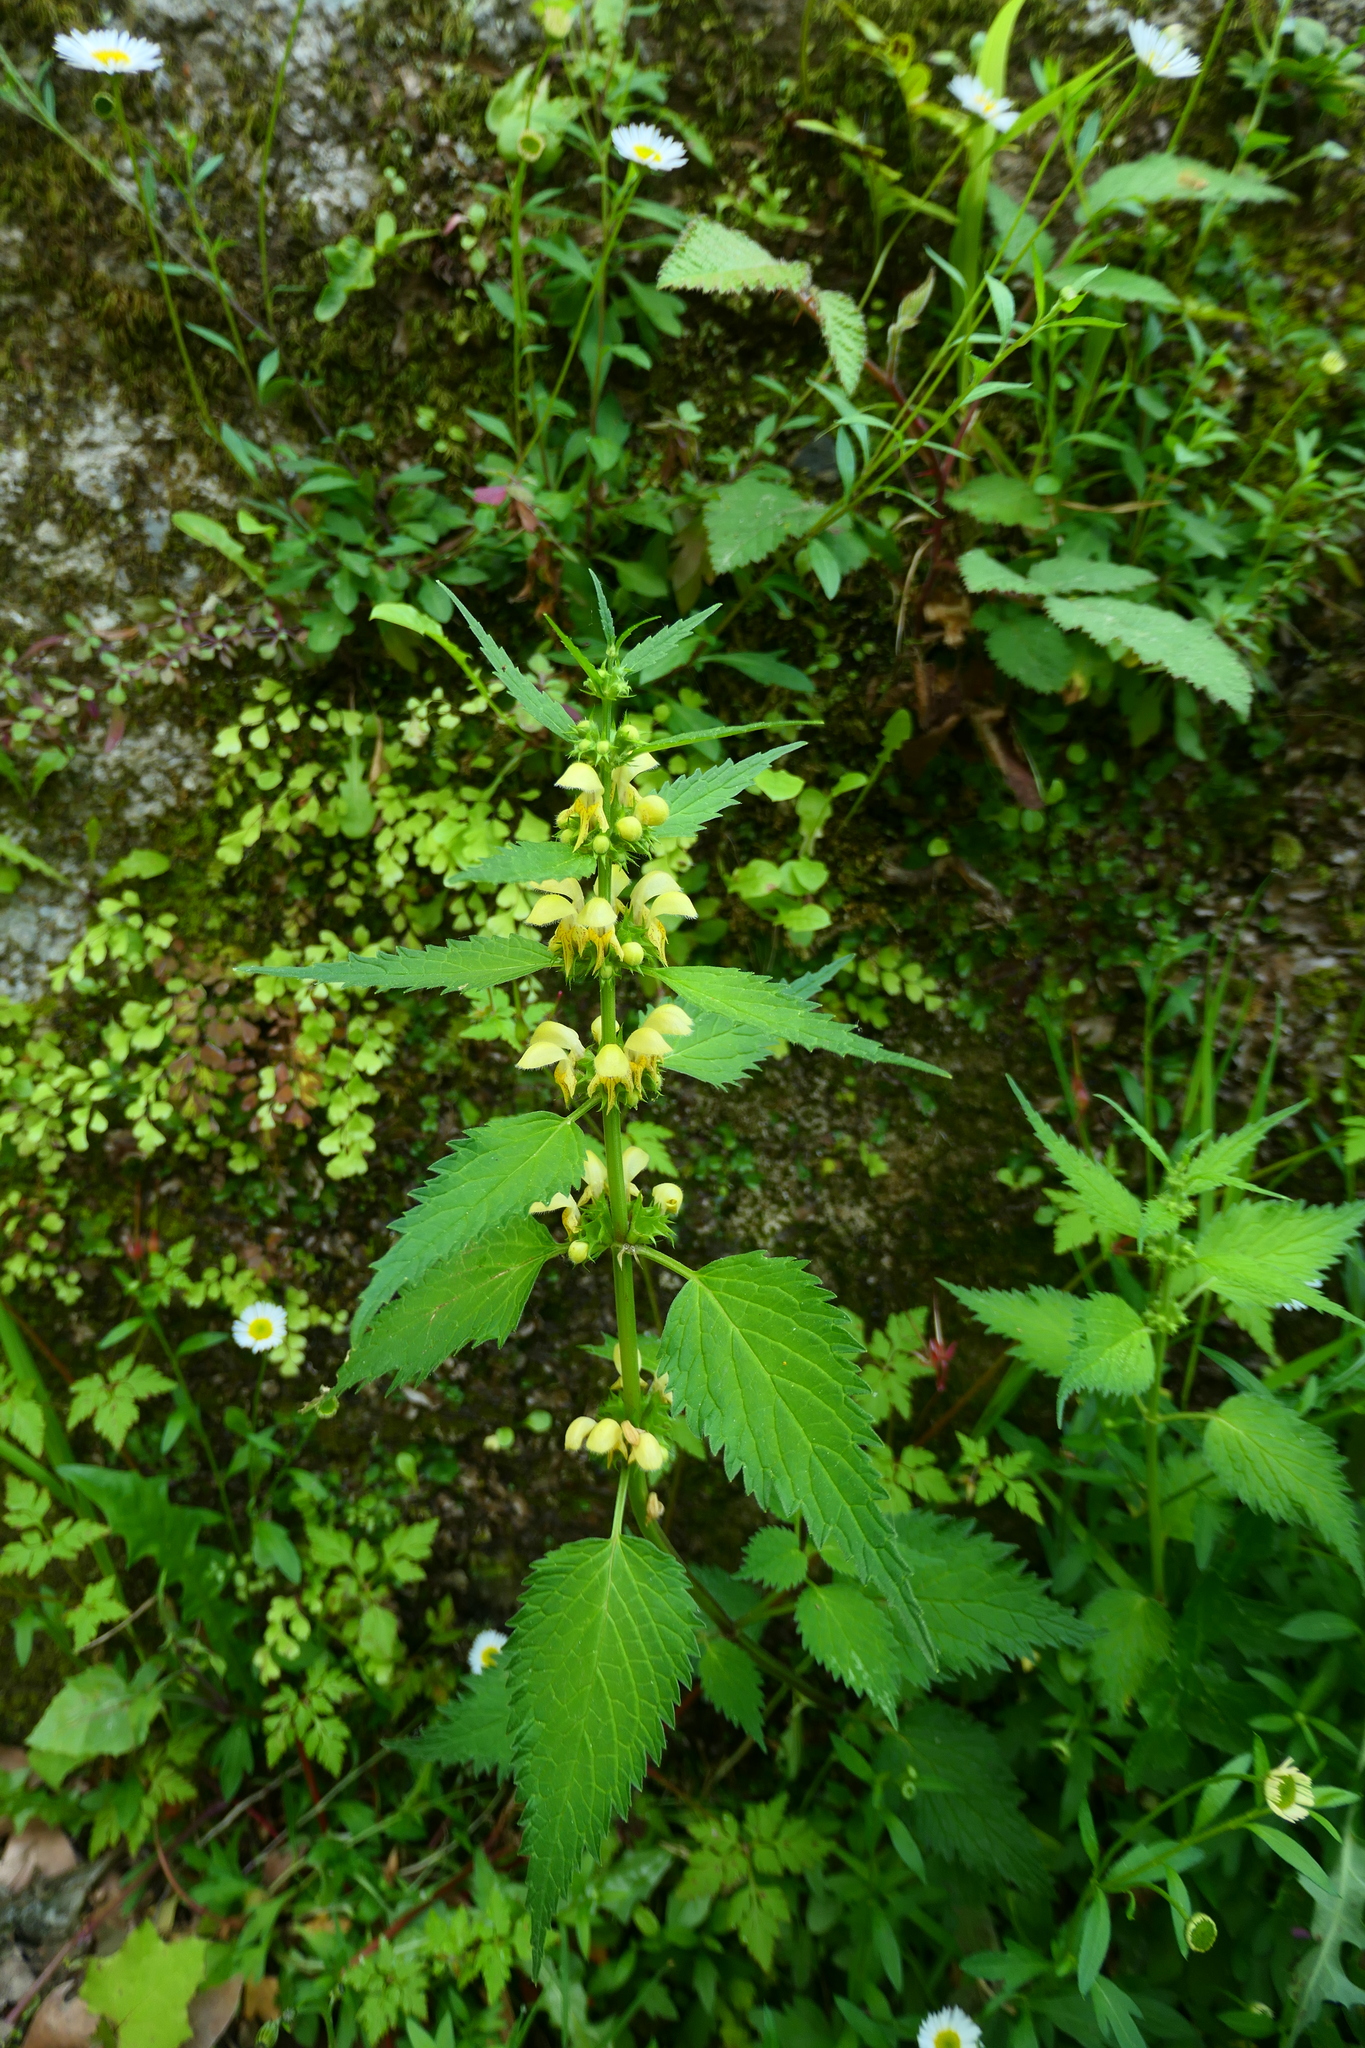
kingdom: Plantae
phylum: Tracheophyta
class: Magnoliopsida
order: Lamiales
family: Lamiaceae
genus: Lamium
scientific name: Lamium galeobdolon
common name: Yellow archangel
